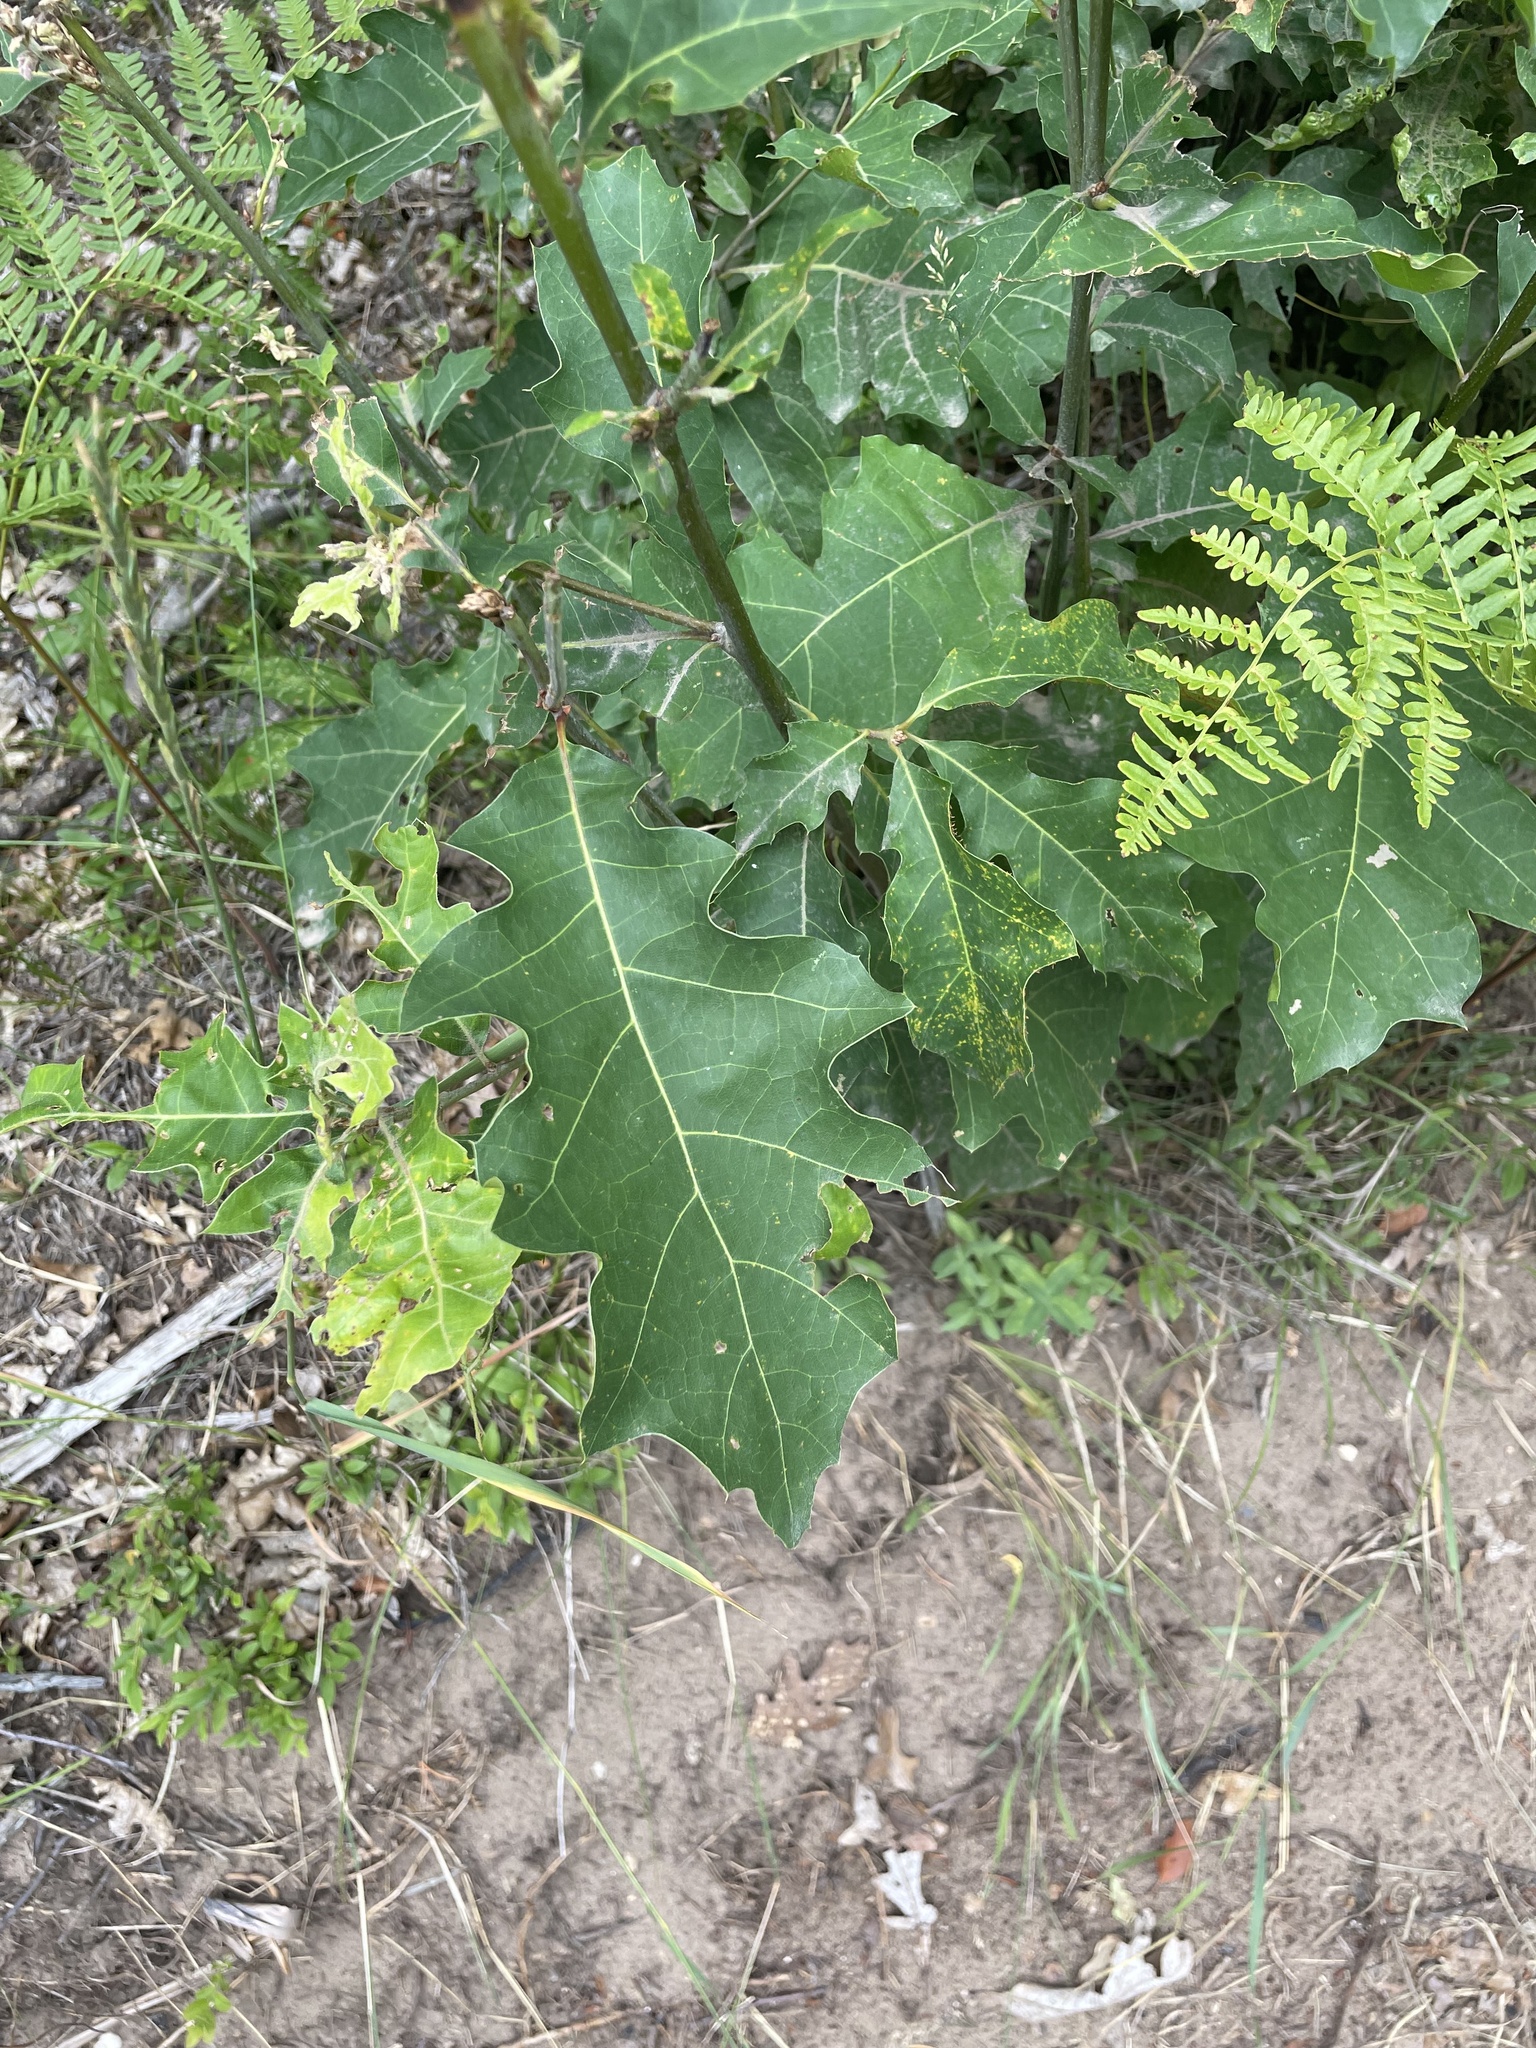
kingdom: Plantae
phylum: Tracheophyta
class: Magnoliopsida
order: Fagales
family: Fagaceae
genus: Quercus
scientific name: Quercus rubra
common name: Red oak
